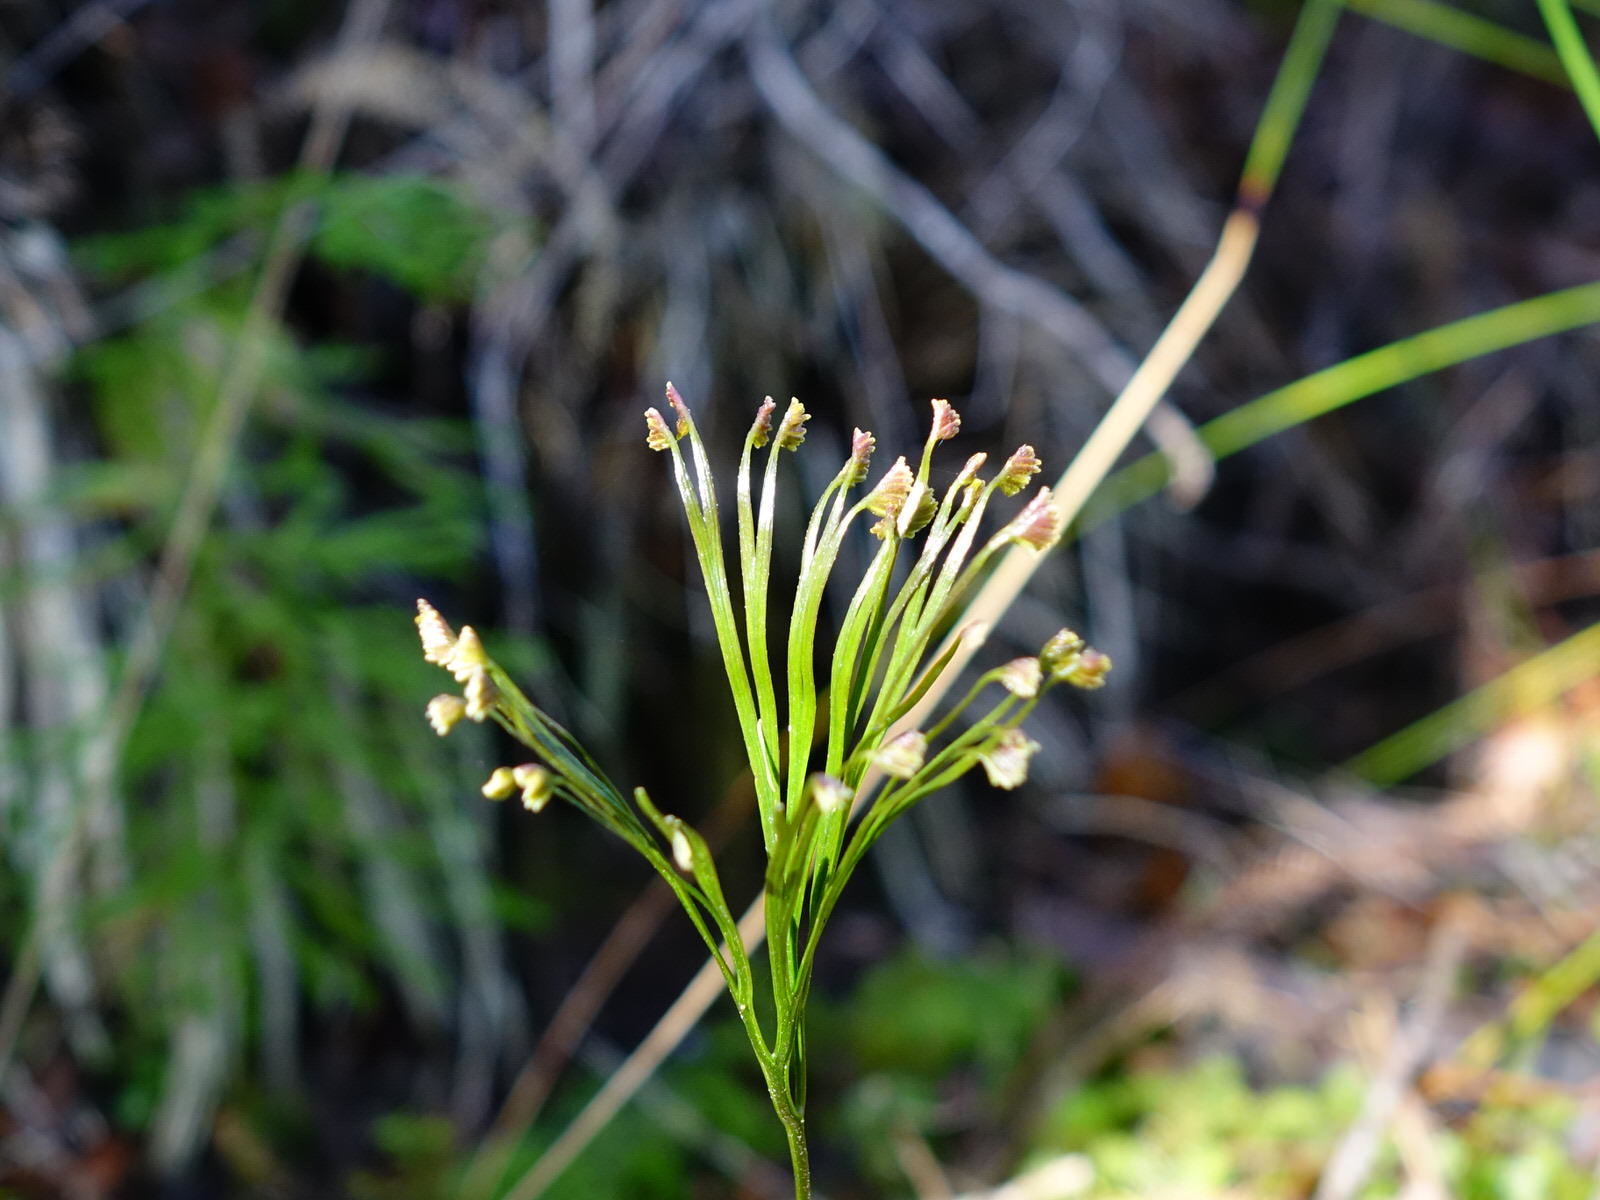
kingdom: Plantae
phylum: Tracheophyta
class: Polypodiopsida
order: Schizaeales
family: Schizaeaceae
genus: Schizaea
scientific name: Schizaea dichotoma
